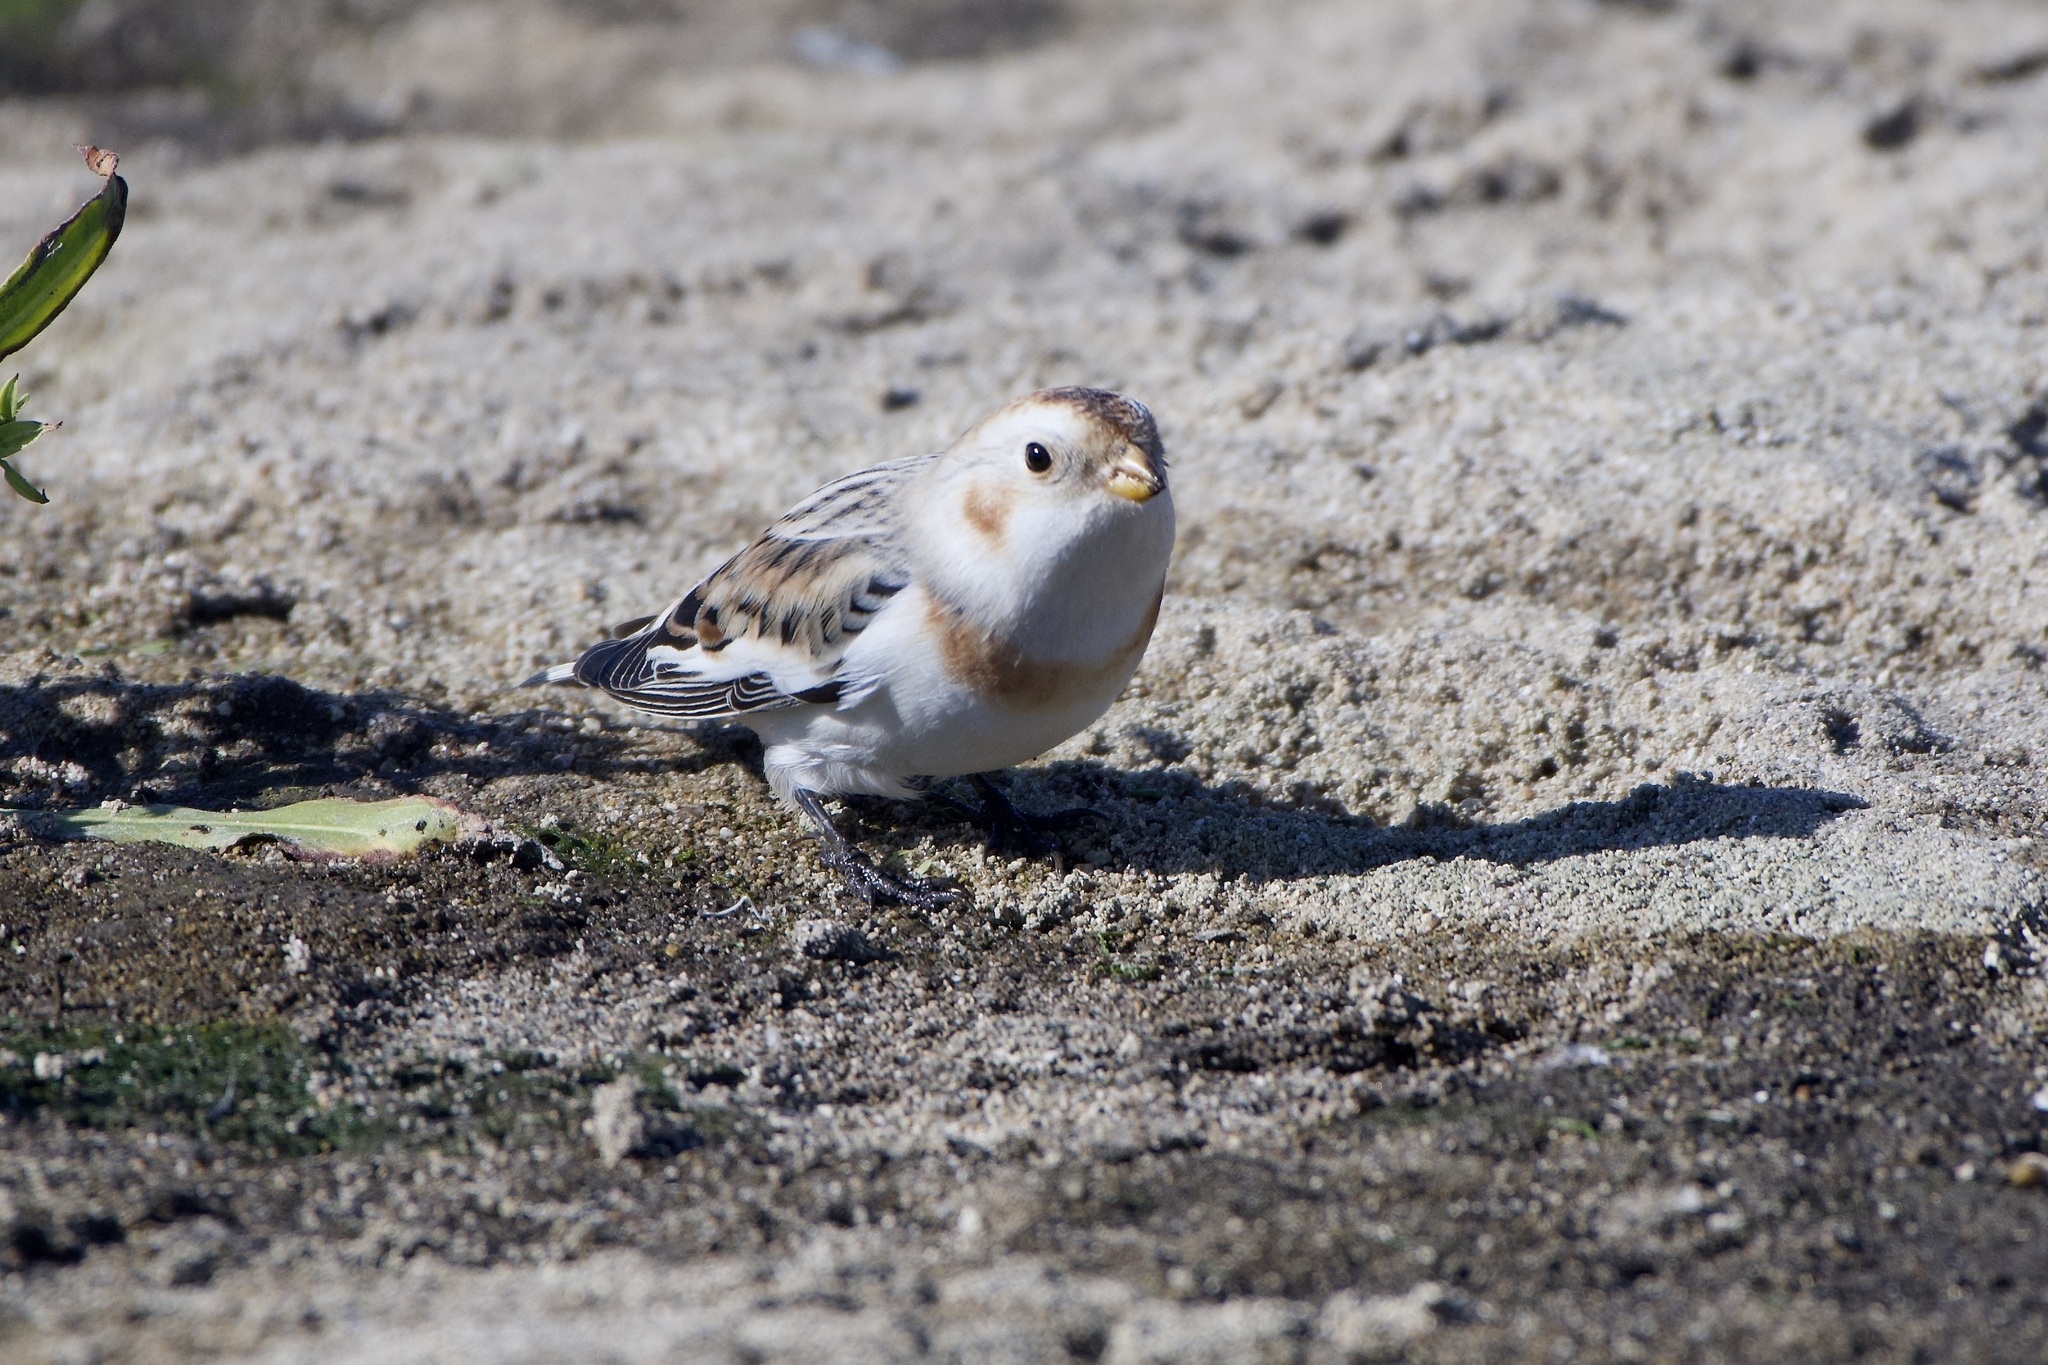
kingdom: Animalia
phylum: Chordata
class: Aves
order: Passeriformes
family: Calcariidae
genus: Plectrophenax
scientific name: Plectrophenax nivalis
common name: Snow bunting
